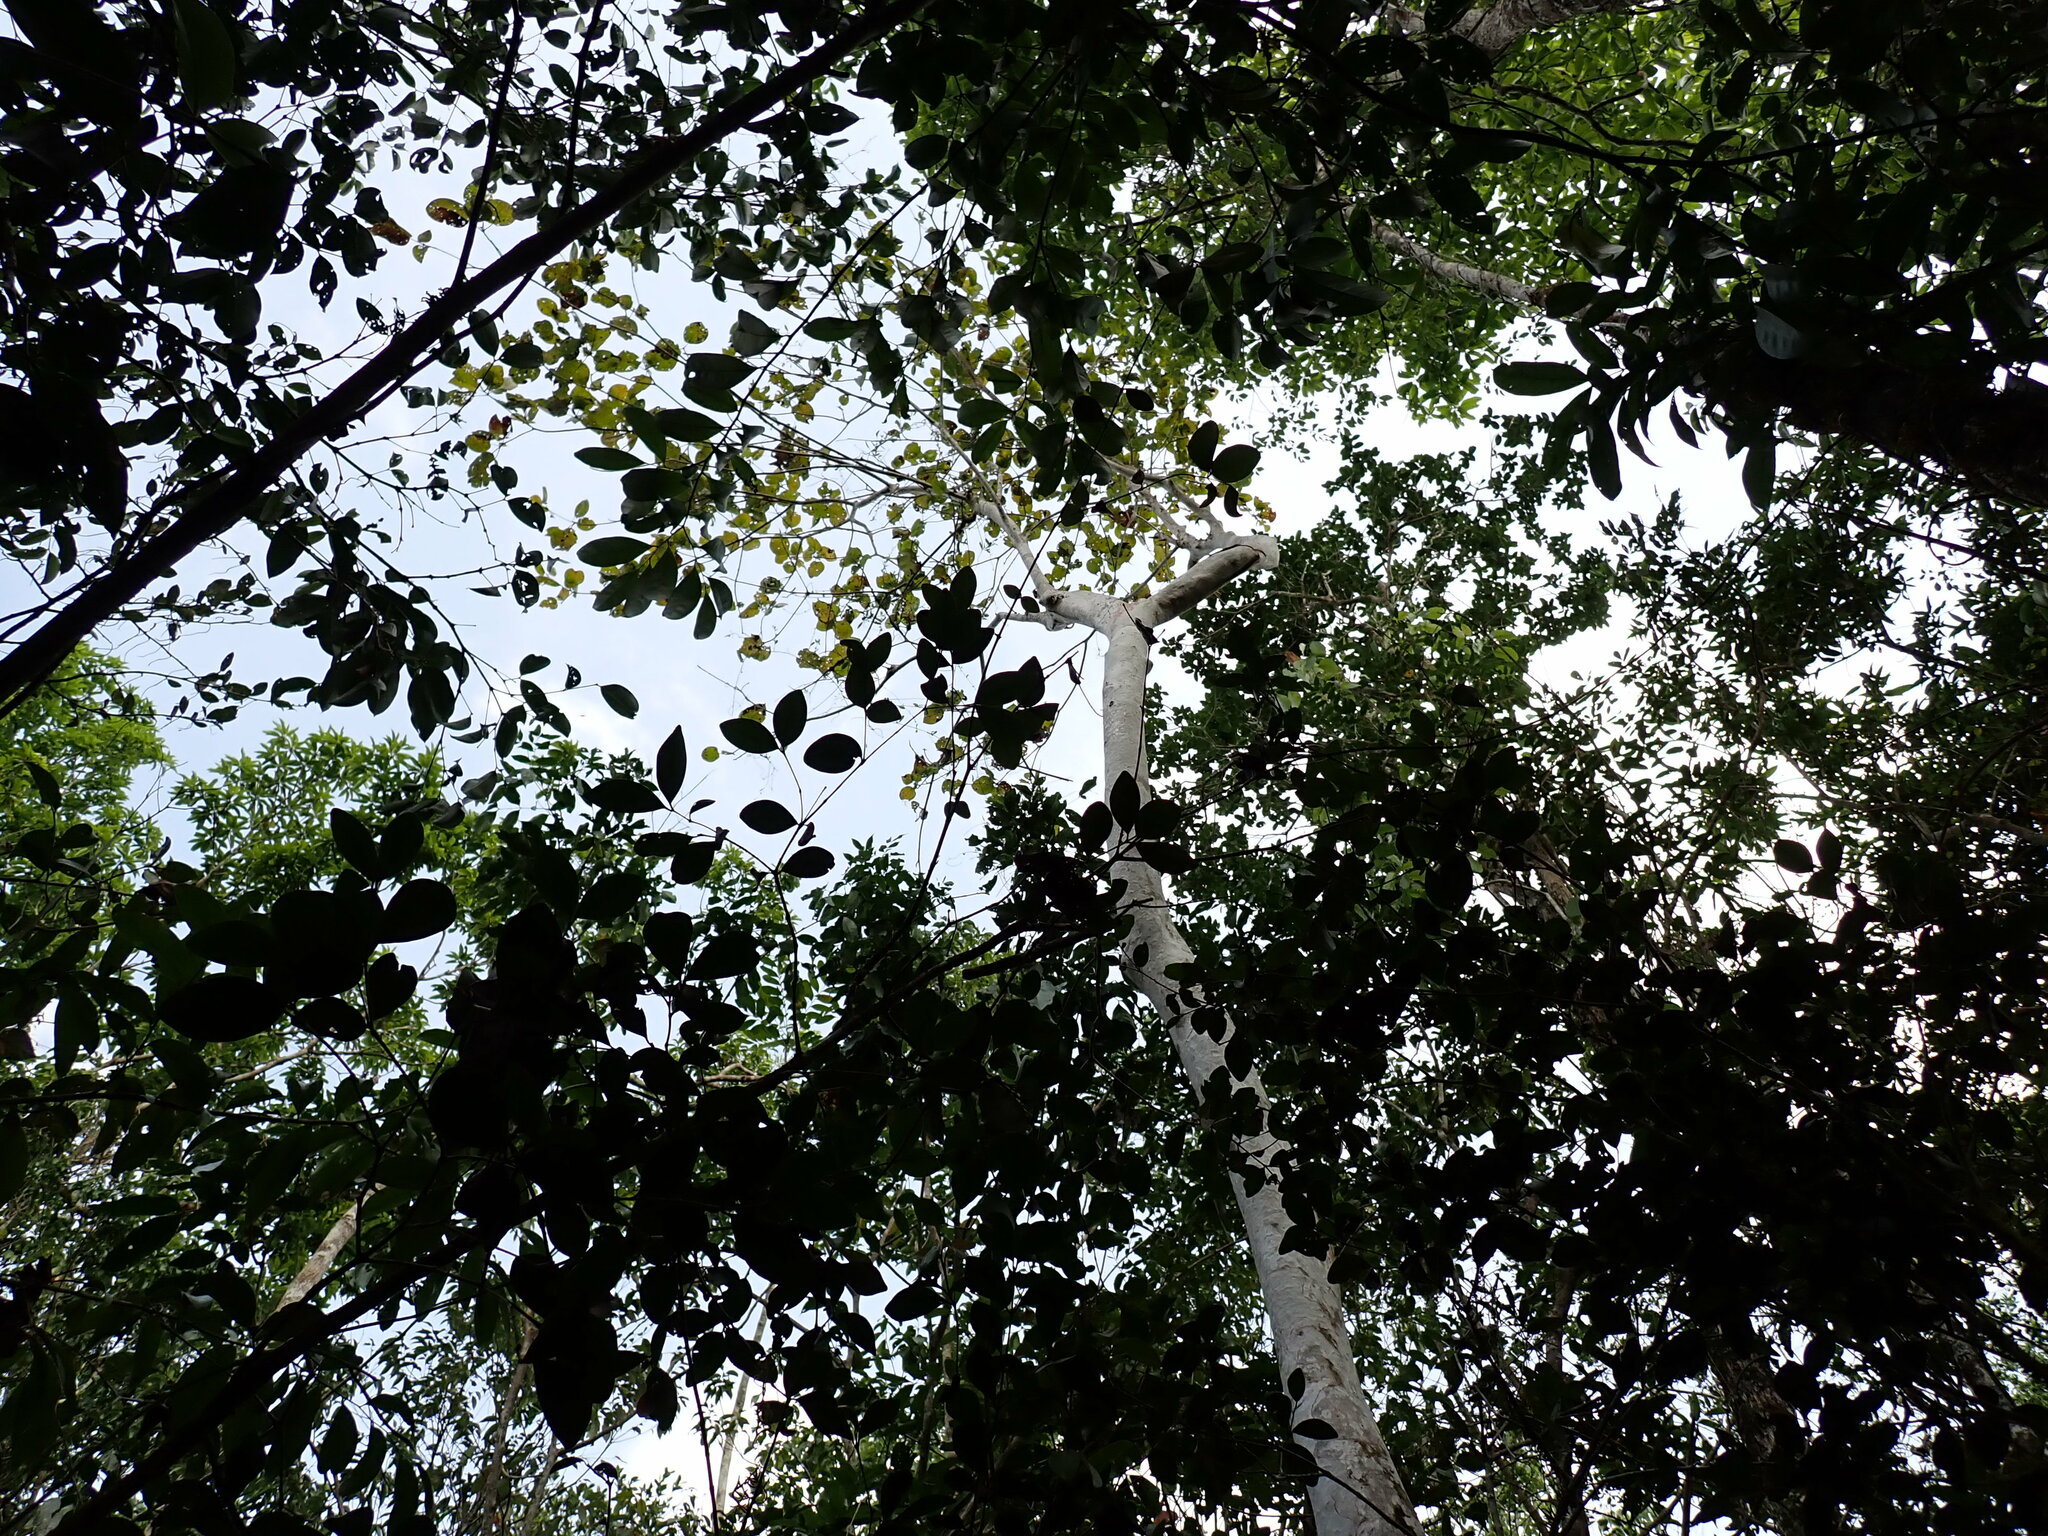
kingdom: Plantae
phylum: Tracheophyta
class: Magnoliopsida
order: Gentianales
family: Rubiaceae
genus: Guettarda
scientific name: Guettarda combsii
